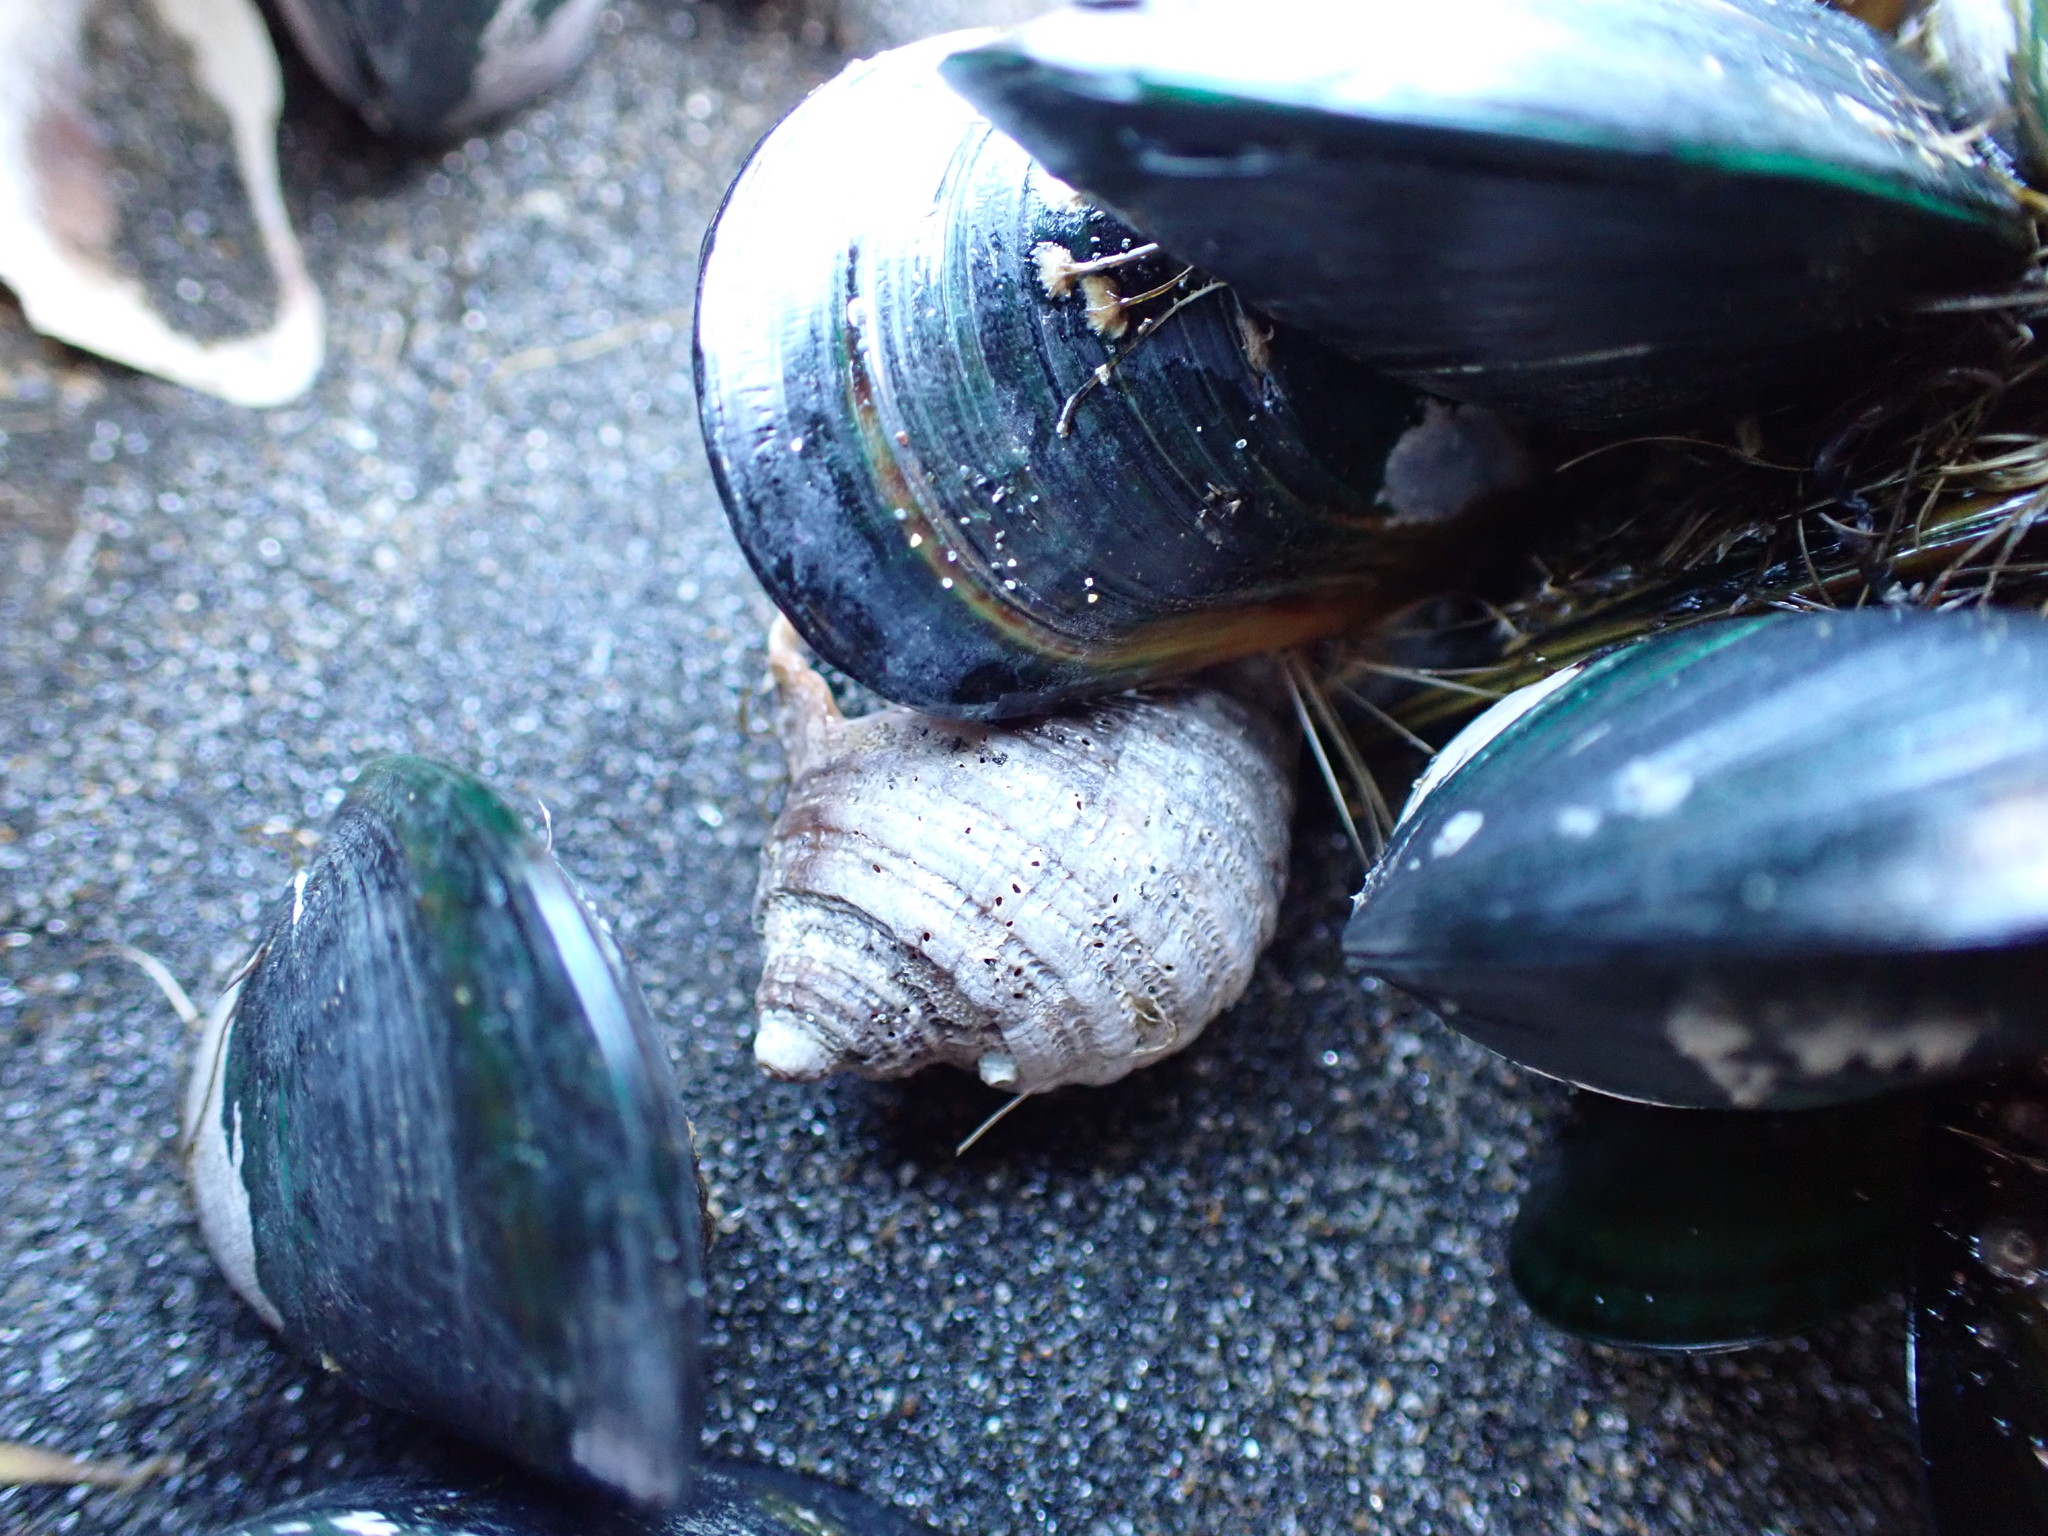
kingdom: Animalia
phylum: Mollusca
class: Gastropoda
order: Neogastropoda
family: Muricidae
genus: Dicathais
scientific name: Dicathais orbita
